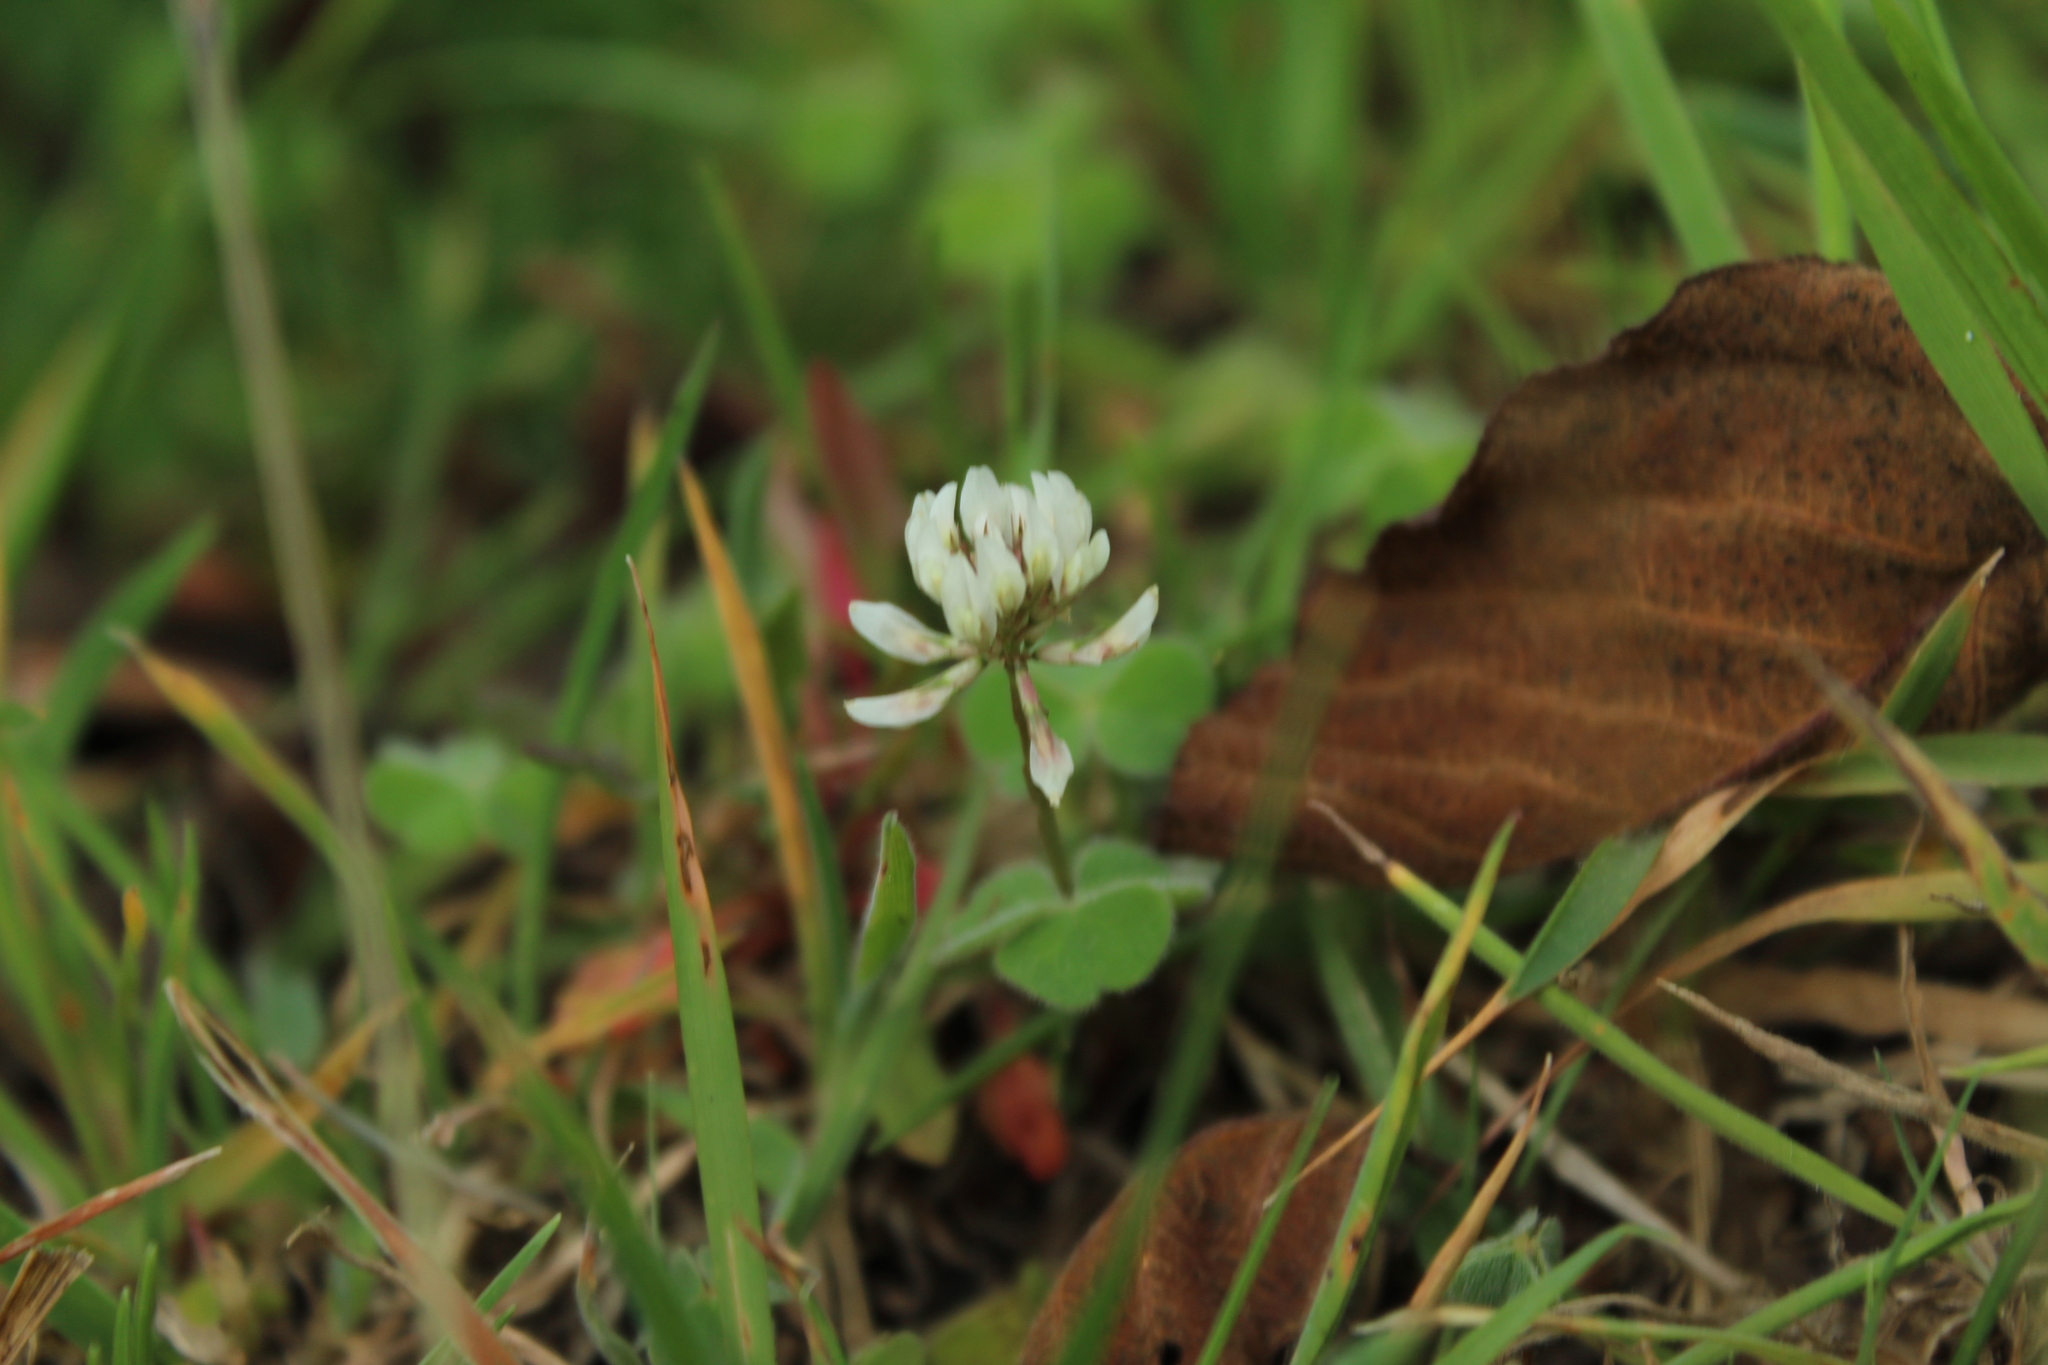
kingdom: Plantae
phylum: Tracheophyta
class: Magnoliopsida
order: Fabales
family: Fabaceae
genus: Trifolium
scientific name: Trifolium repens
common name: White clover
